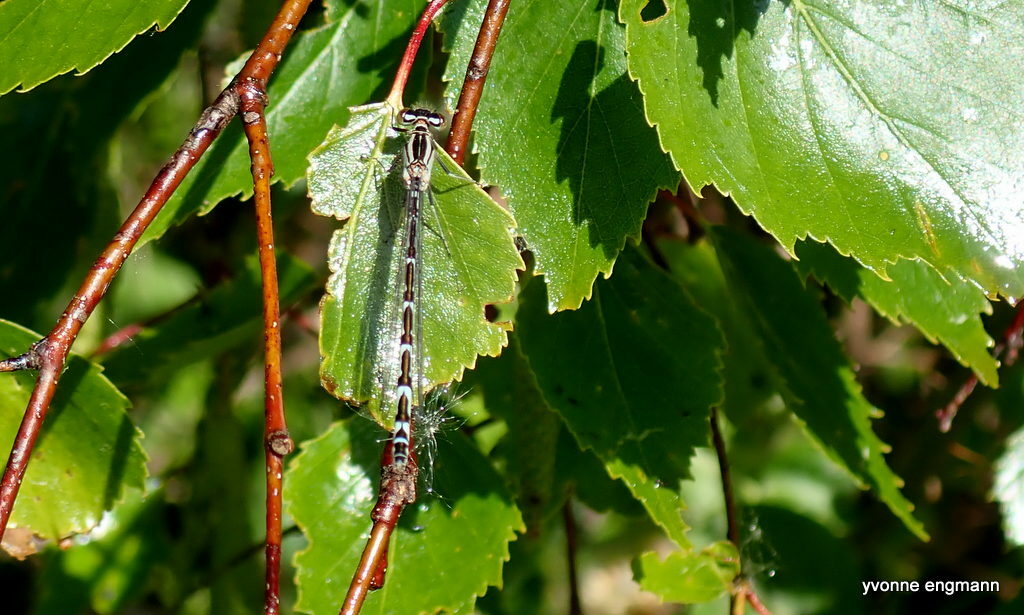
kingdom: Animalia
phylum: Arthropoda
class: Insecta
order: Odonata
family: Coenagrionidae
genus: Enallagma
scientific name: Enallagma cyathigerum
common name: Common blue damselfly
